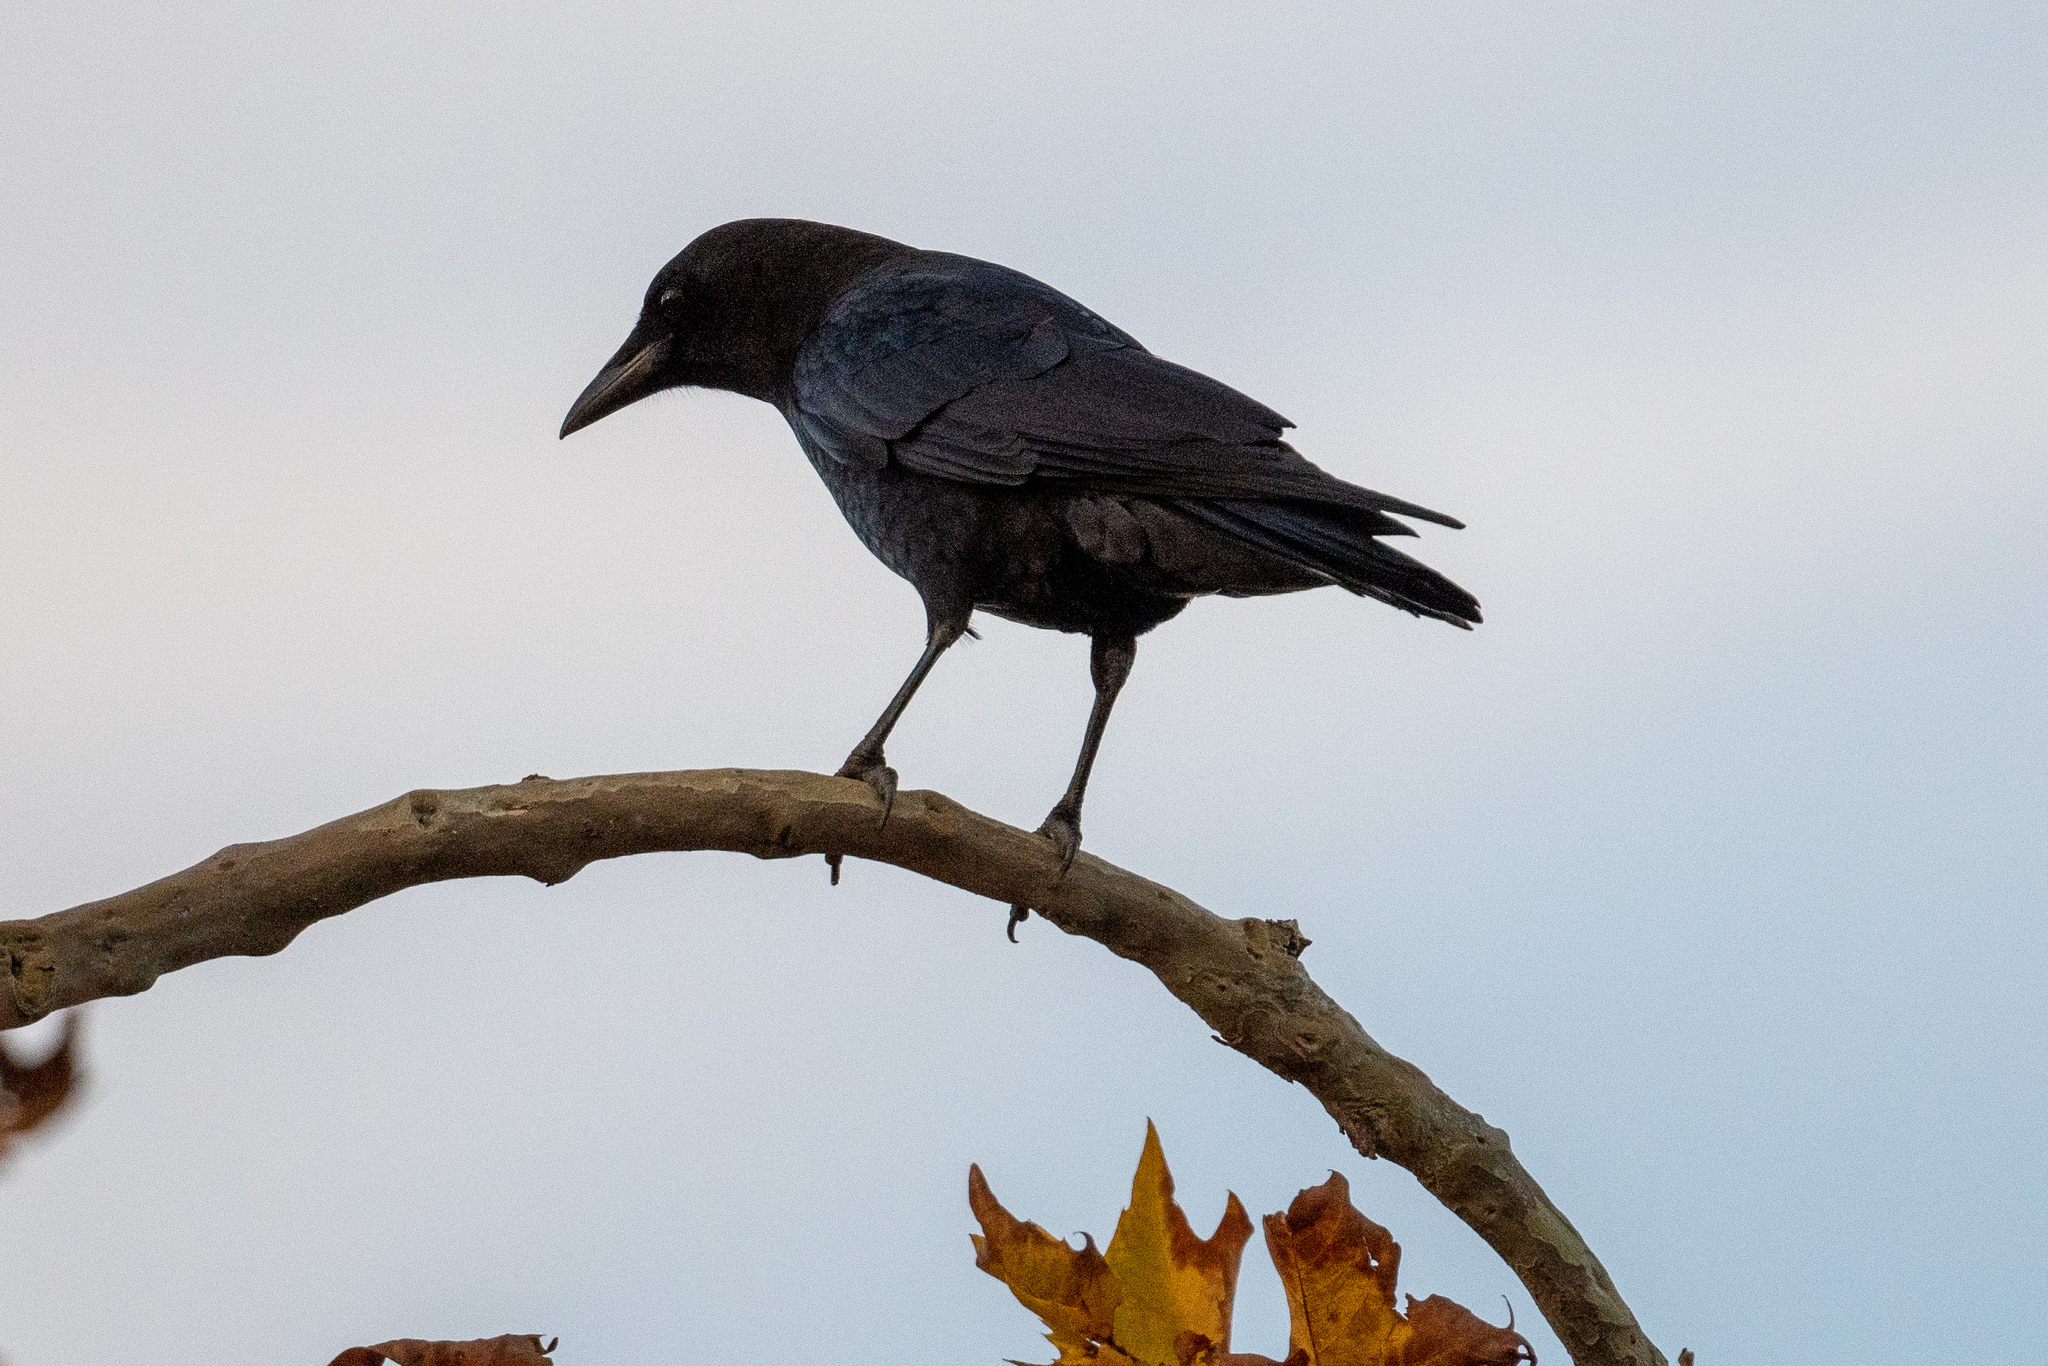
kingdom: Animalia
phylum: Chordata
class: Aves
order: Passeriformes
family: Corvidae
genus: Corvus
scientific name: Corvus brachyrhynchos
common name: American crow
